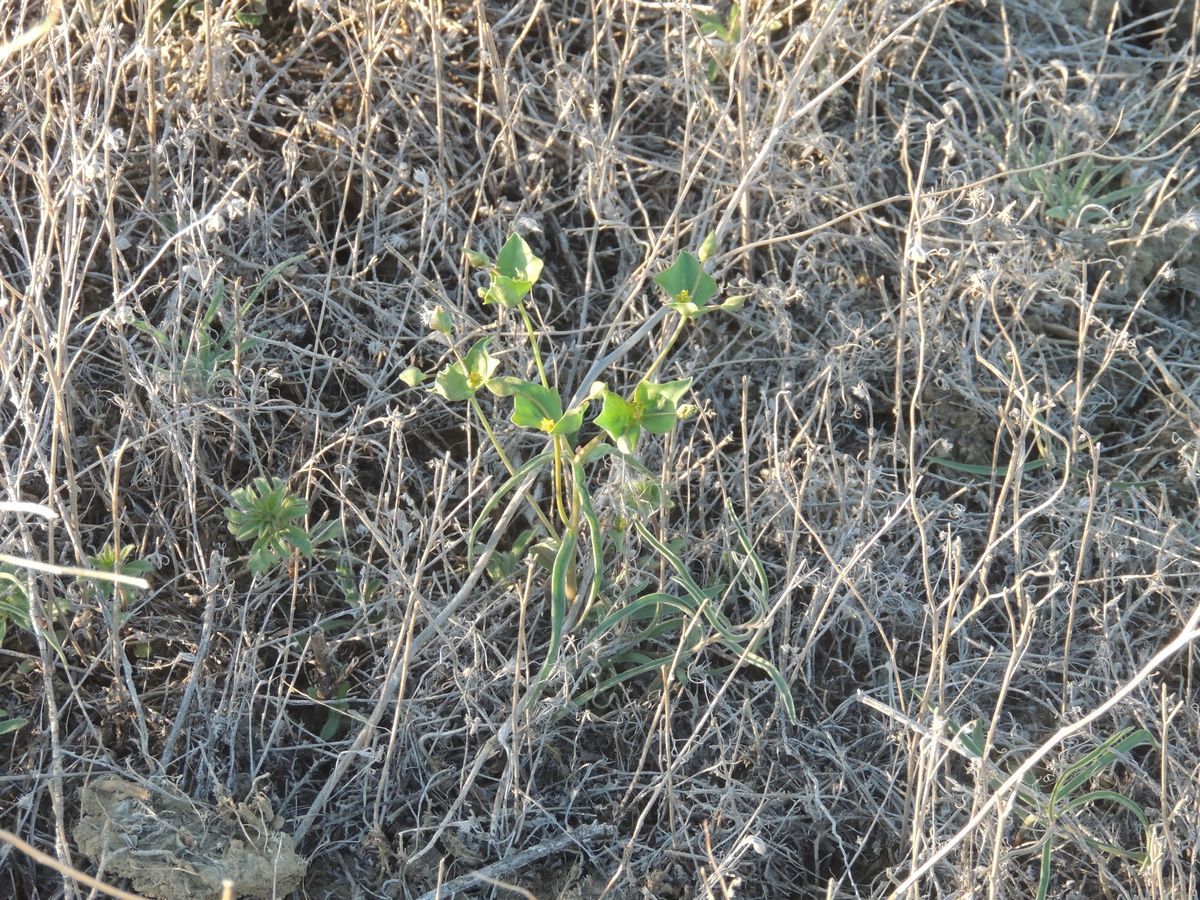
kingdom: Plantae
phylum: Tracheophyta
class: Magnoliopsida
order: Malpighiales
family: Euphorbiaceae
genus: Euphorbia
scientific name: Euphorbia praecox
